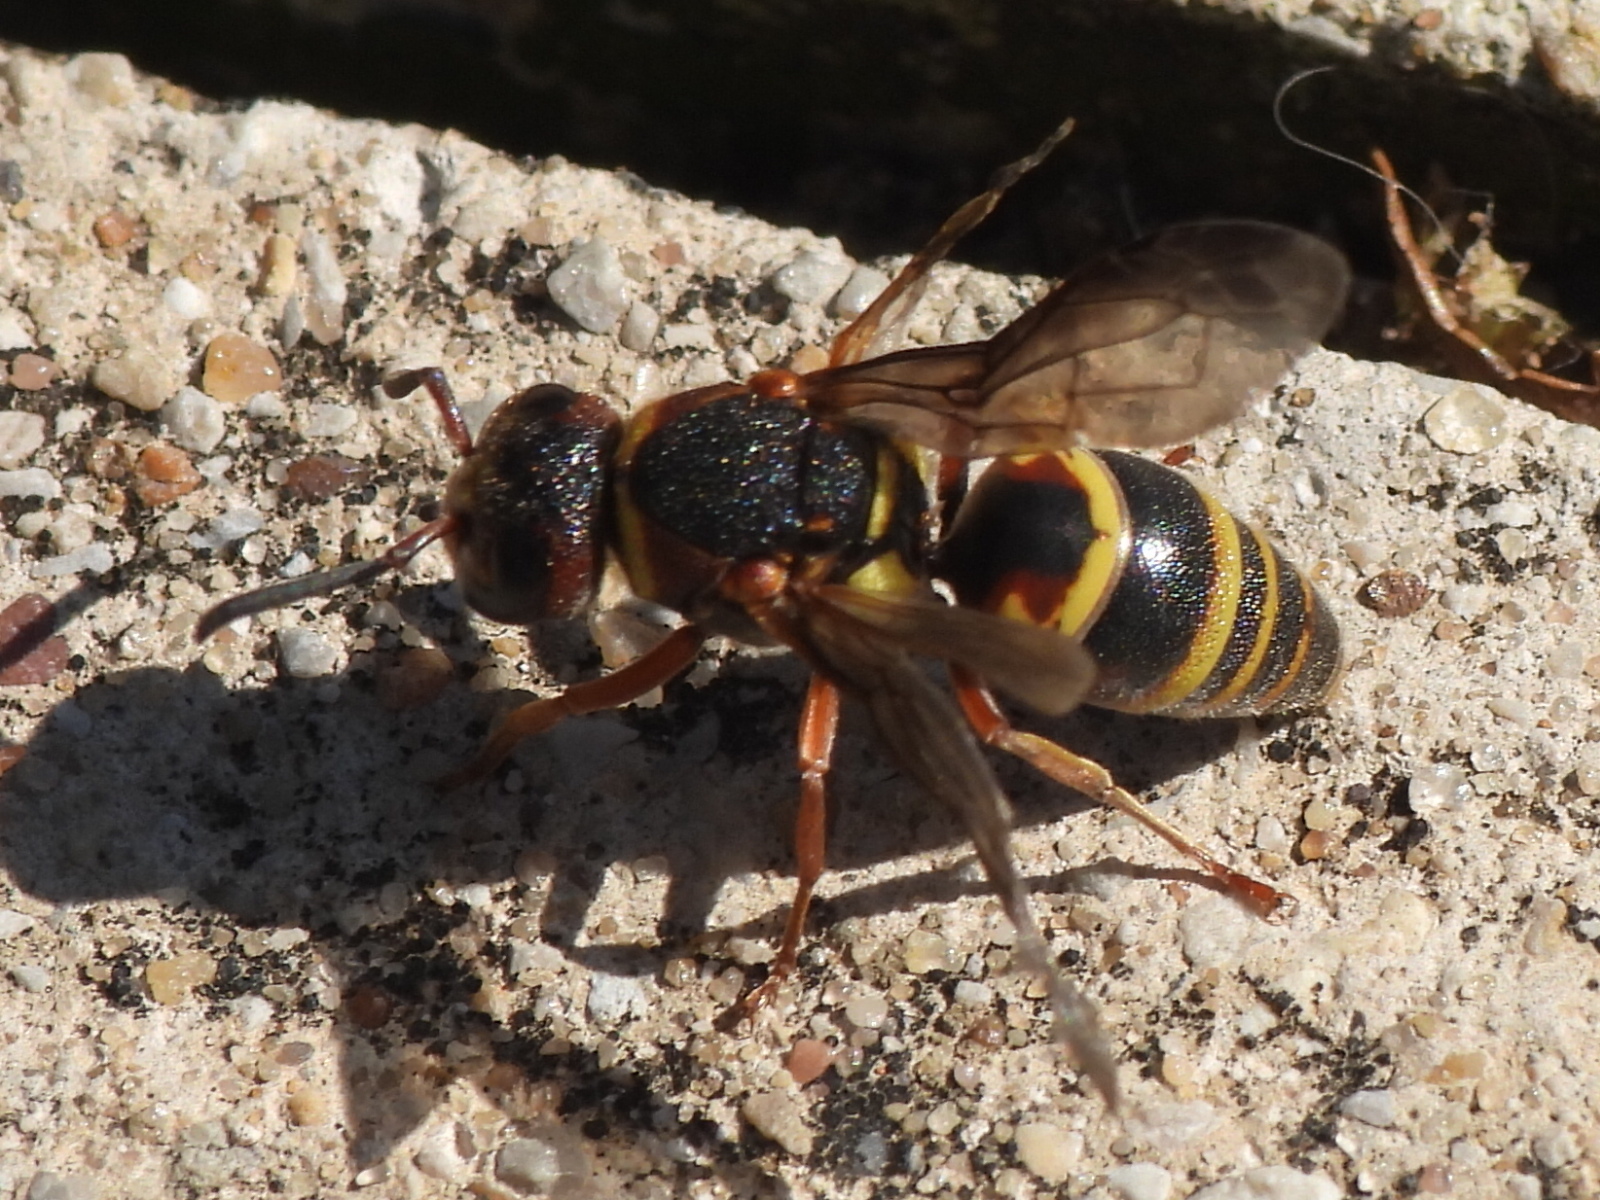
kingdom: Animalia
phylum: Arthropoda
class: Insecta
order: Hymenoptera
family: Eumenidae
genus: Euodynerus
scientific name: Euodynerus annulatus
